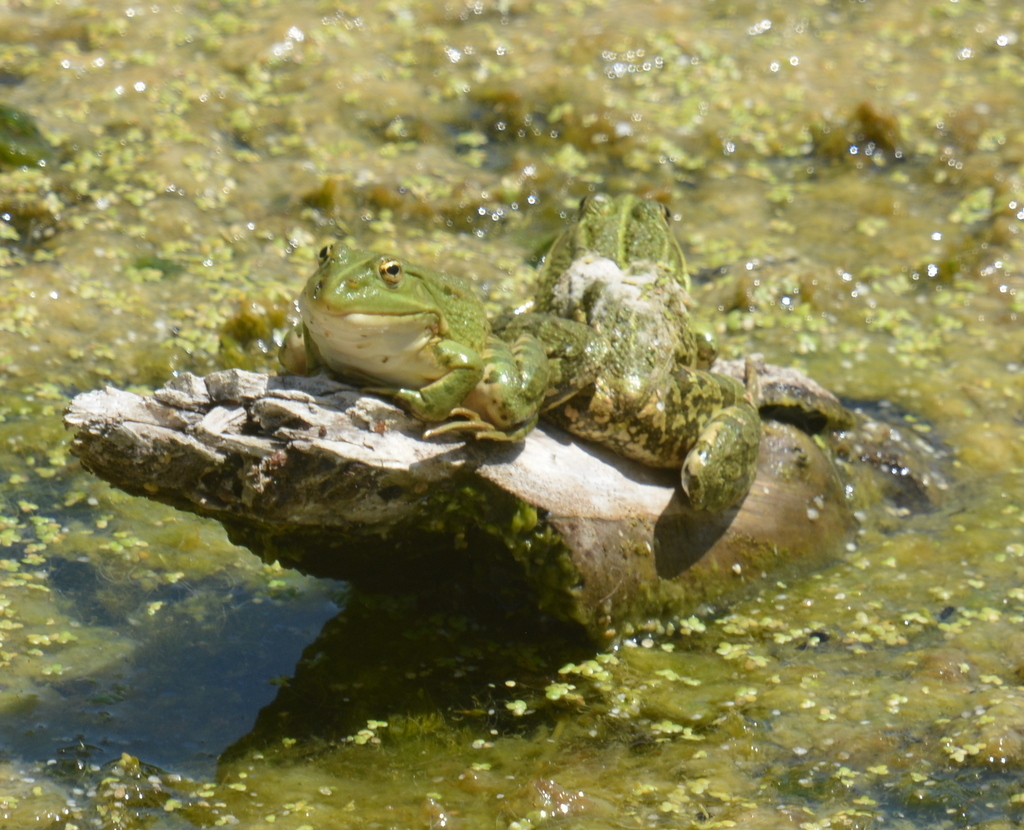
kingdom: Animalia
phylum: Chordata
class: Amphibia
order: Anura
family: Ranidae
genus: Pelophylax
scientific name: Pelophylax
